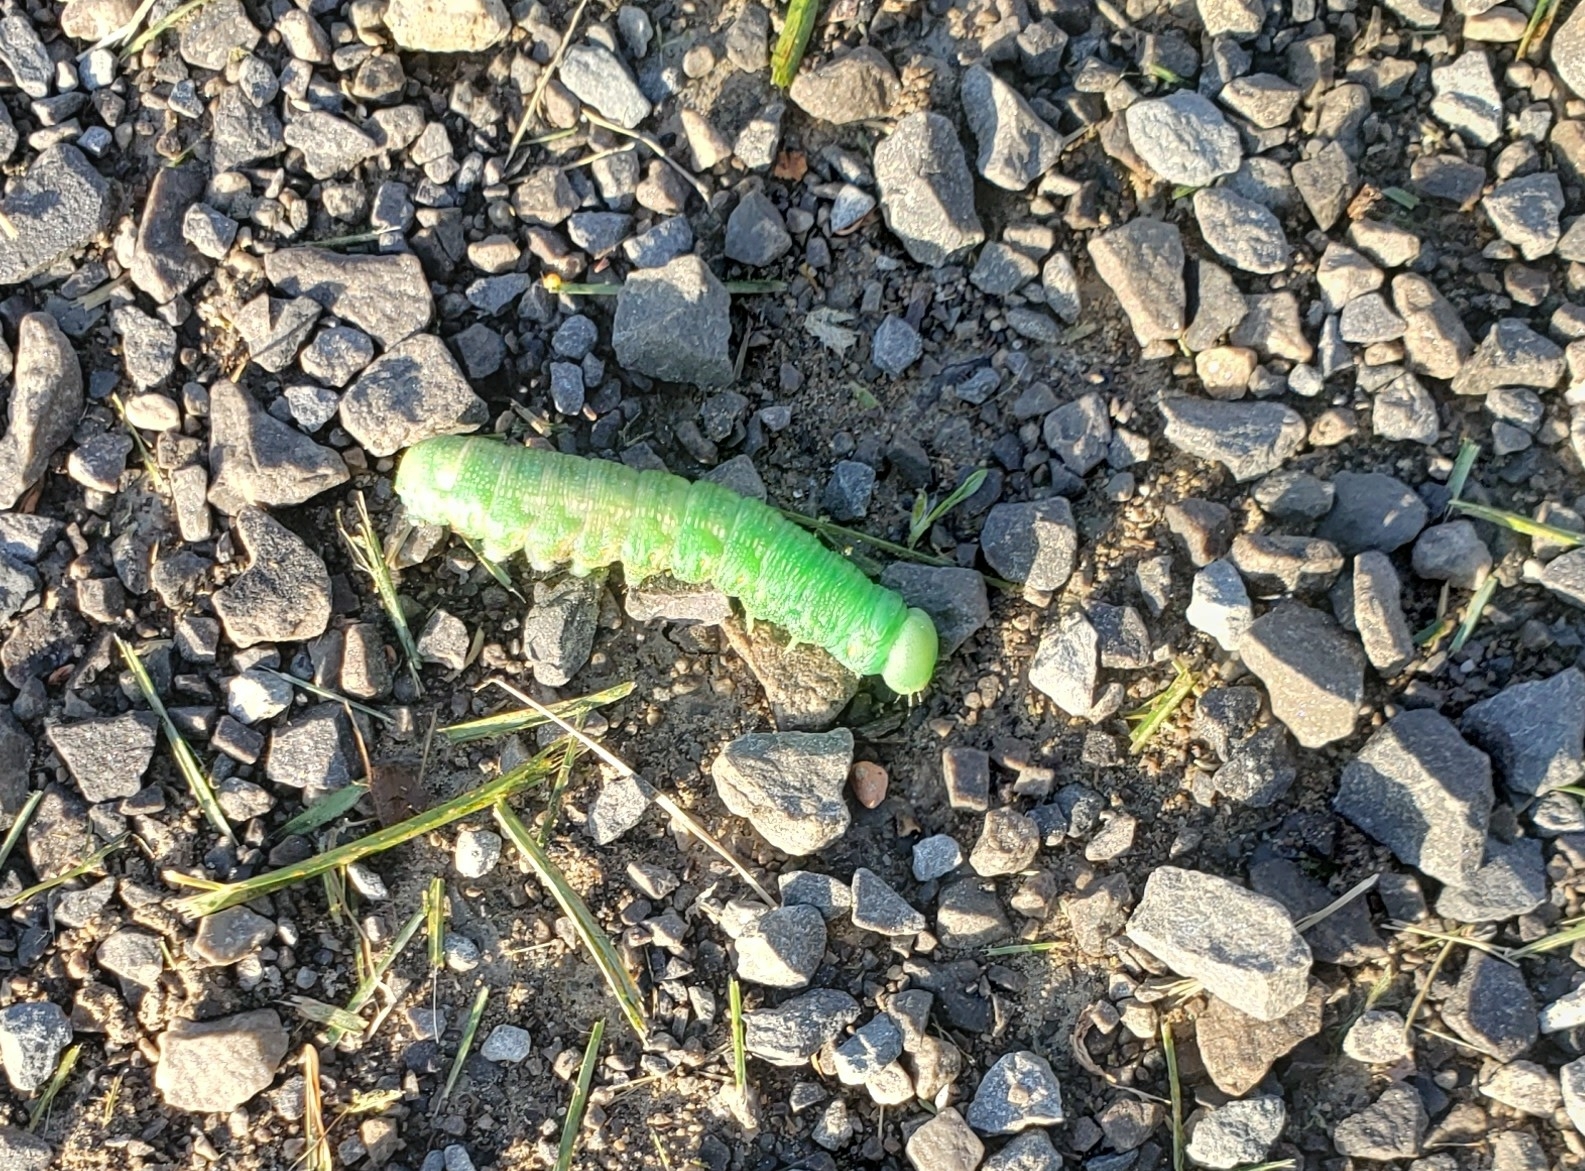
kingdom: Animalia
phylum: Arthropoda
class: Insecta
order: Lepidoptera
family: Notodontidae
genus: Nadata
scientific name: Nadata gibbosa
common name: White-dotted prominent
